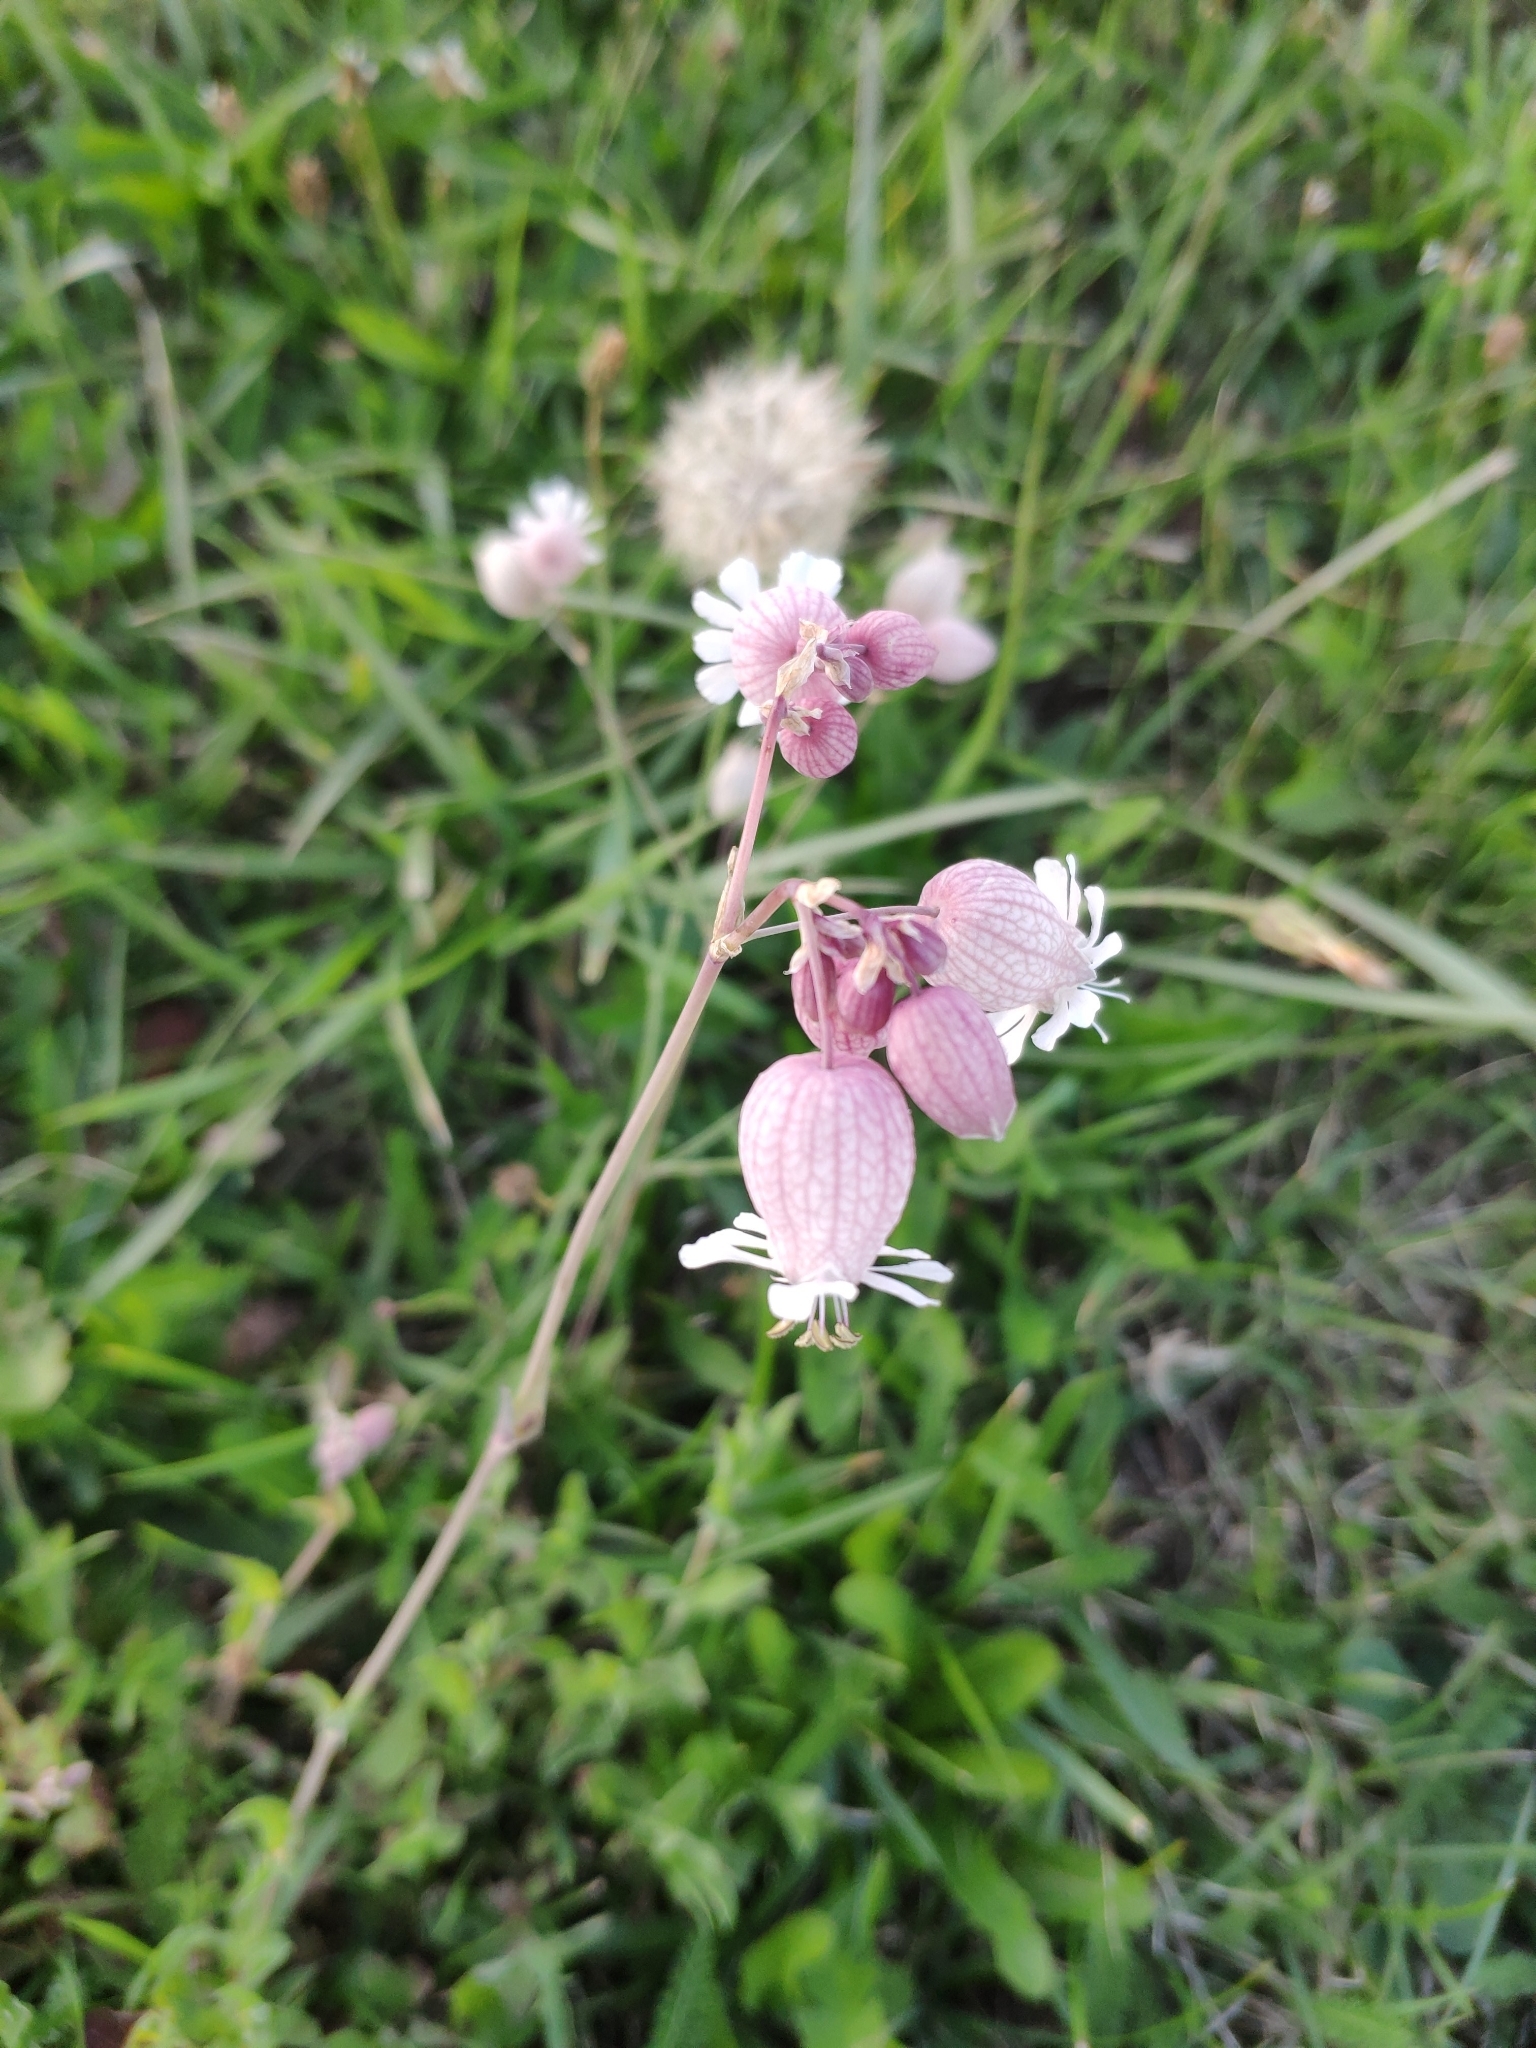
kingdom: Plantae
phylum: Tracheophyta
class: Magnoliopsida
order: Caryophyllales
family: Caryophyllaceae
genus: Silene
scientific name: Silene vulgaris
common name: Bladder campion
